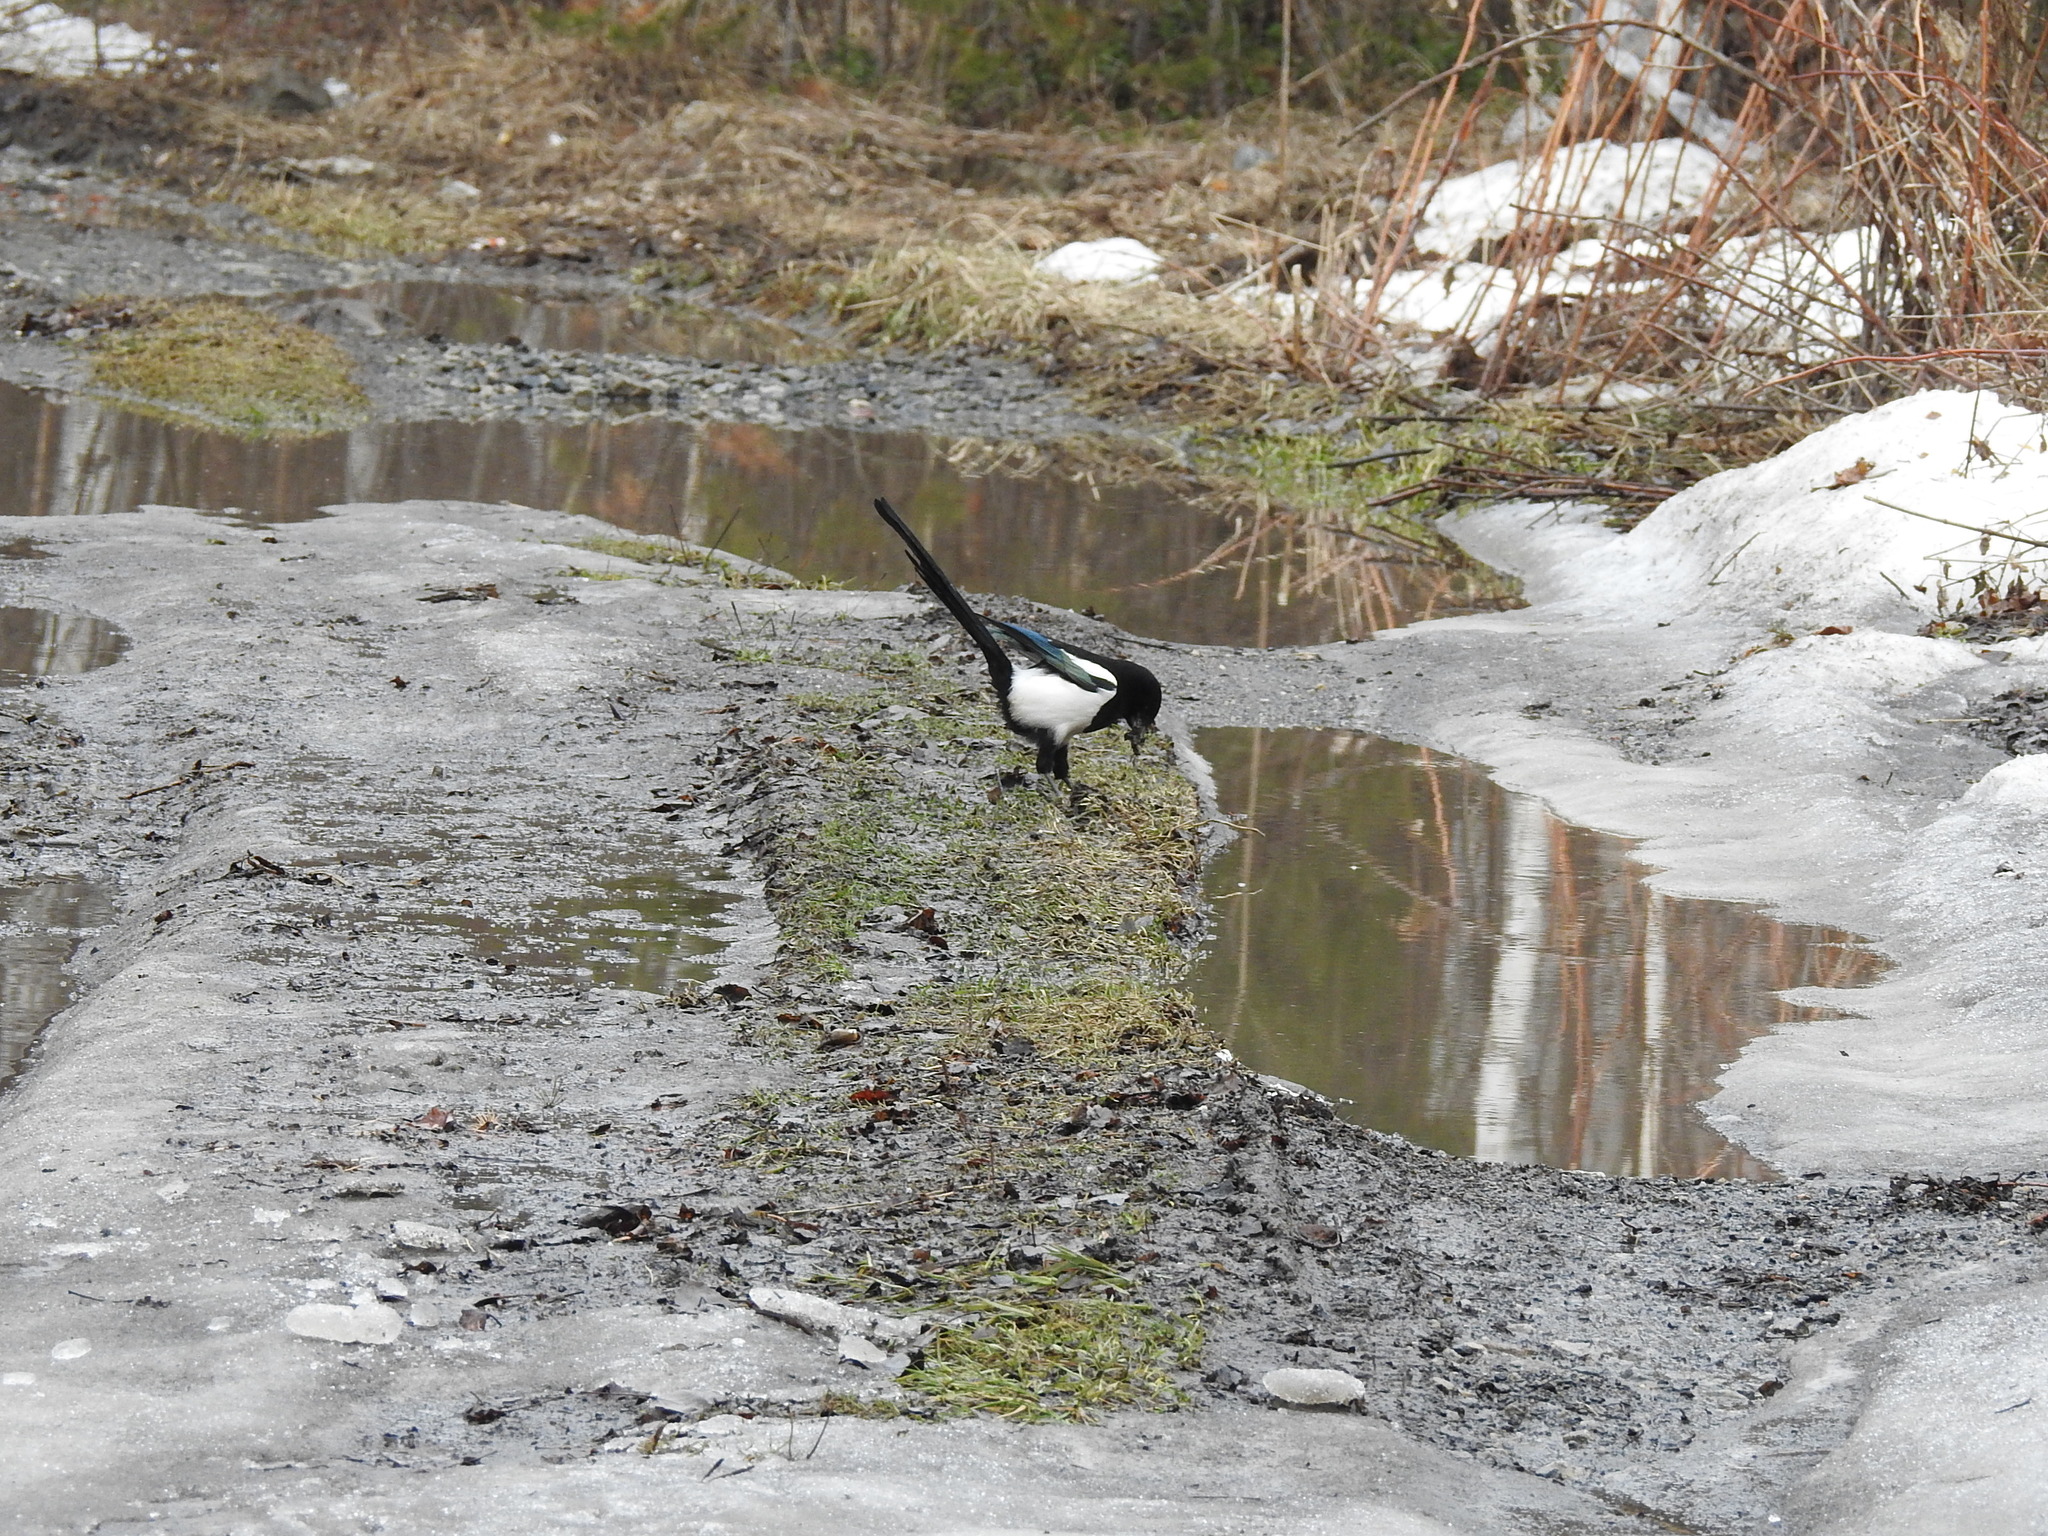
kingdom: Animalia
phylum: Chordata
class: Aves
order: Passeriformes
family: Corvidae
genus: Pica
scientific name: Pica pica
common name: Eurasian magpie
